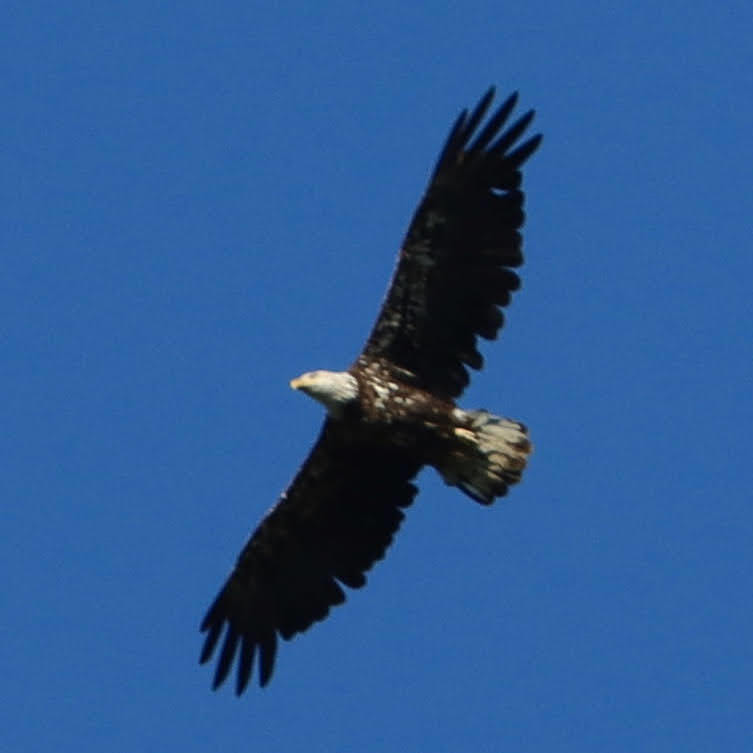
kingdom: Animalia
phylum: Chordata
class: Aves
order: Accipitriformes
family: Accipitridae
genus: Haliaeetus
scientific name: Haliaeetus leucocephalus
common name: Bald eagle
